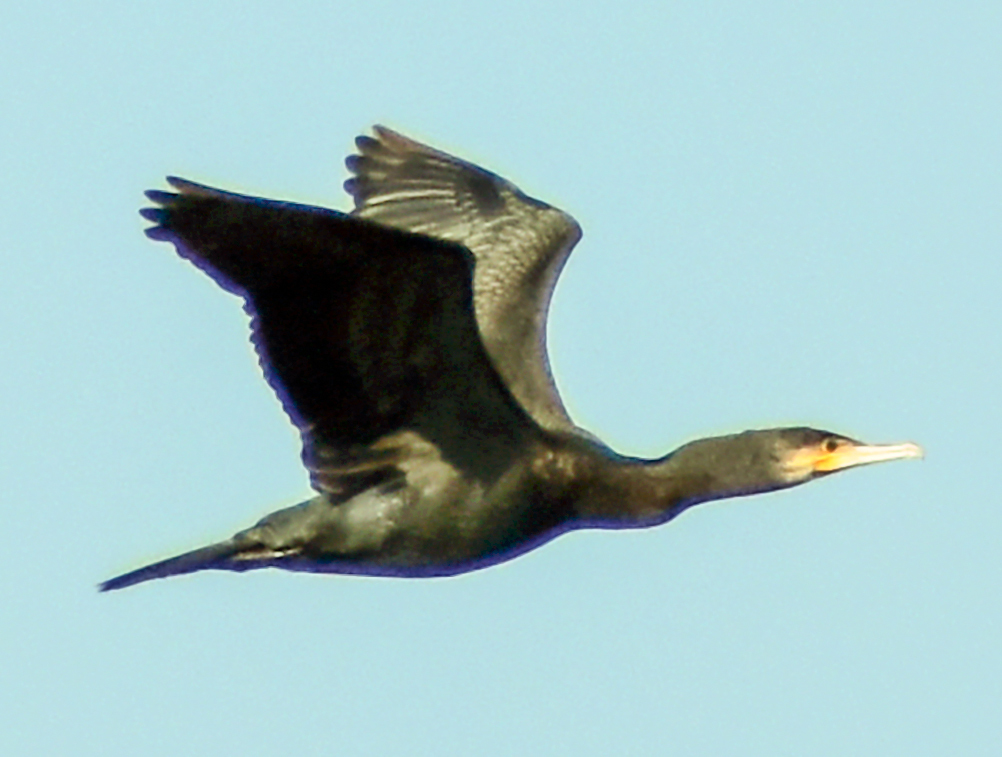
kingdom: Animalia
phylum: Chordata
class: Aves
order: Suliformes
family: Phalacrocoracidae
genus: Phalacrocorax
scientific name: Phalacrocorax carbo
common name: Great cormorant
